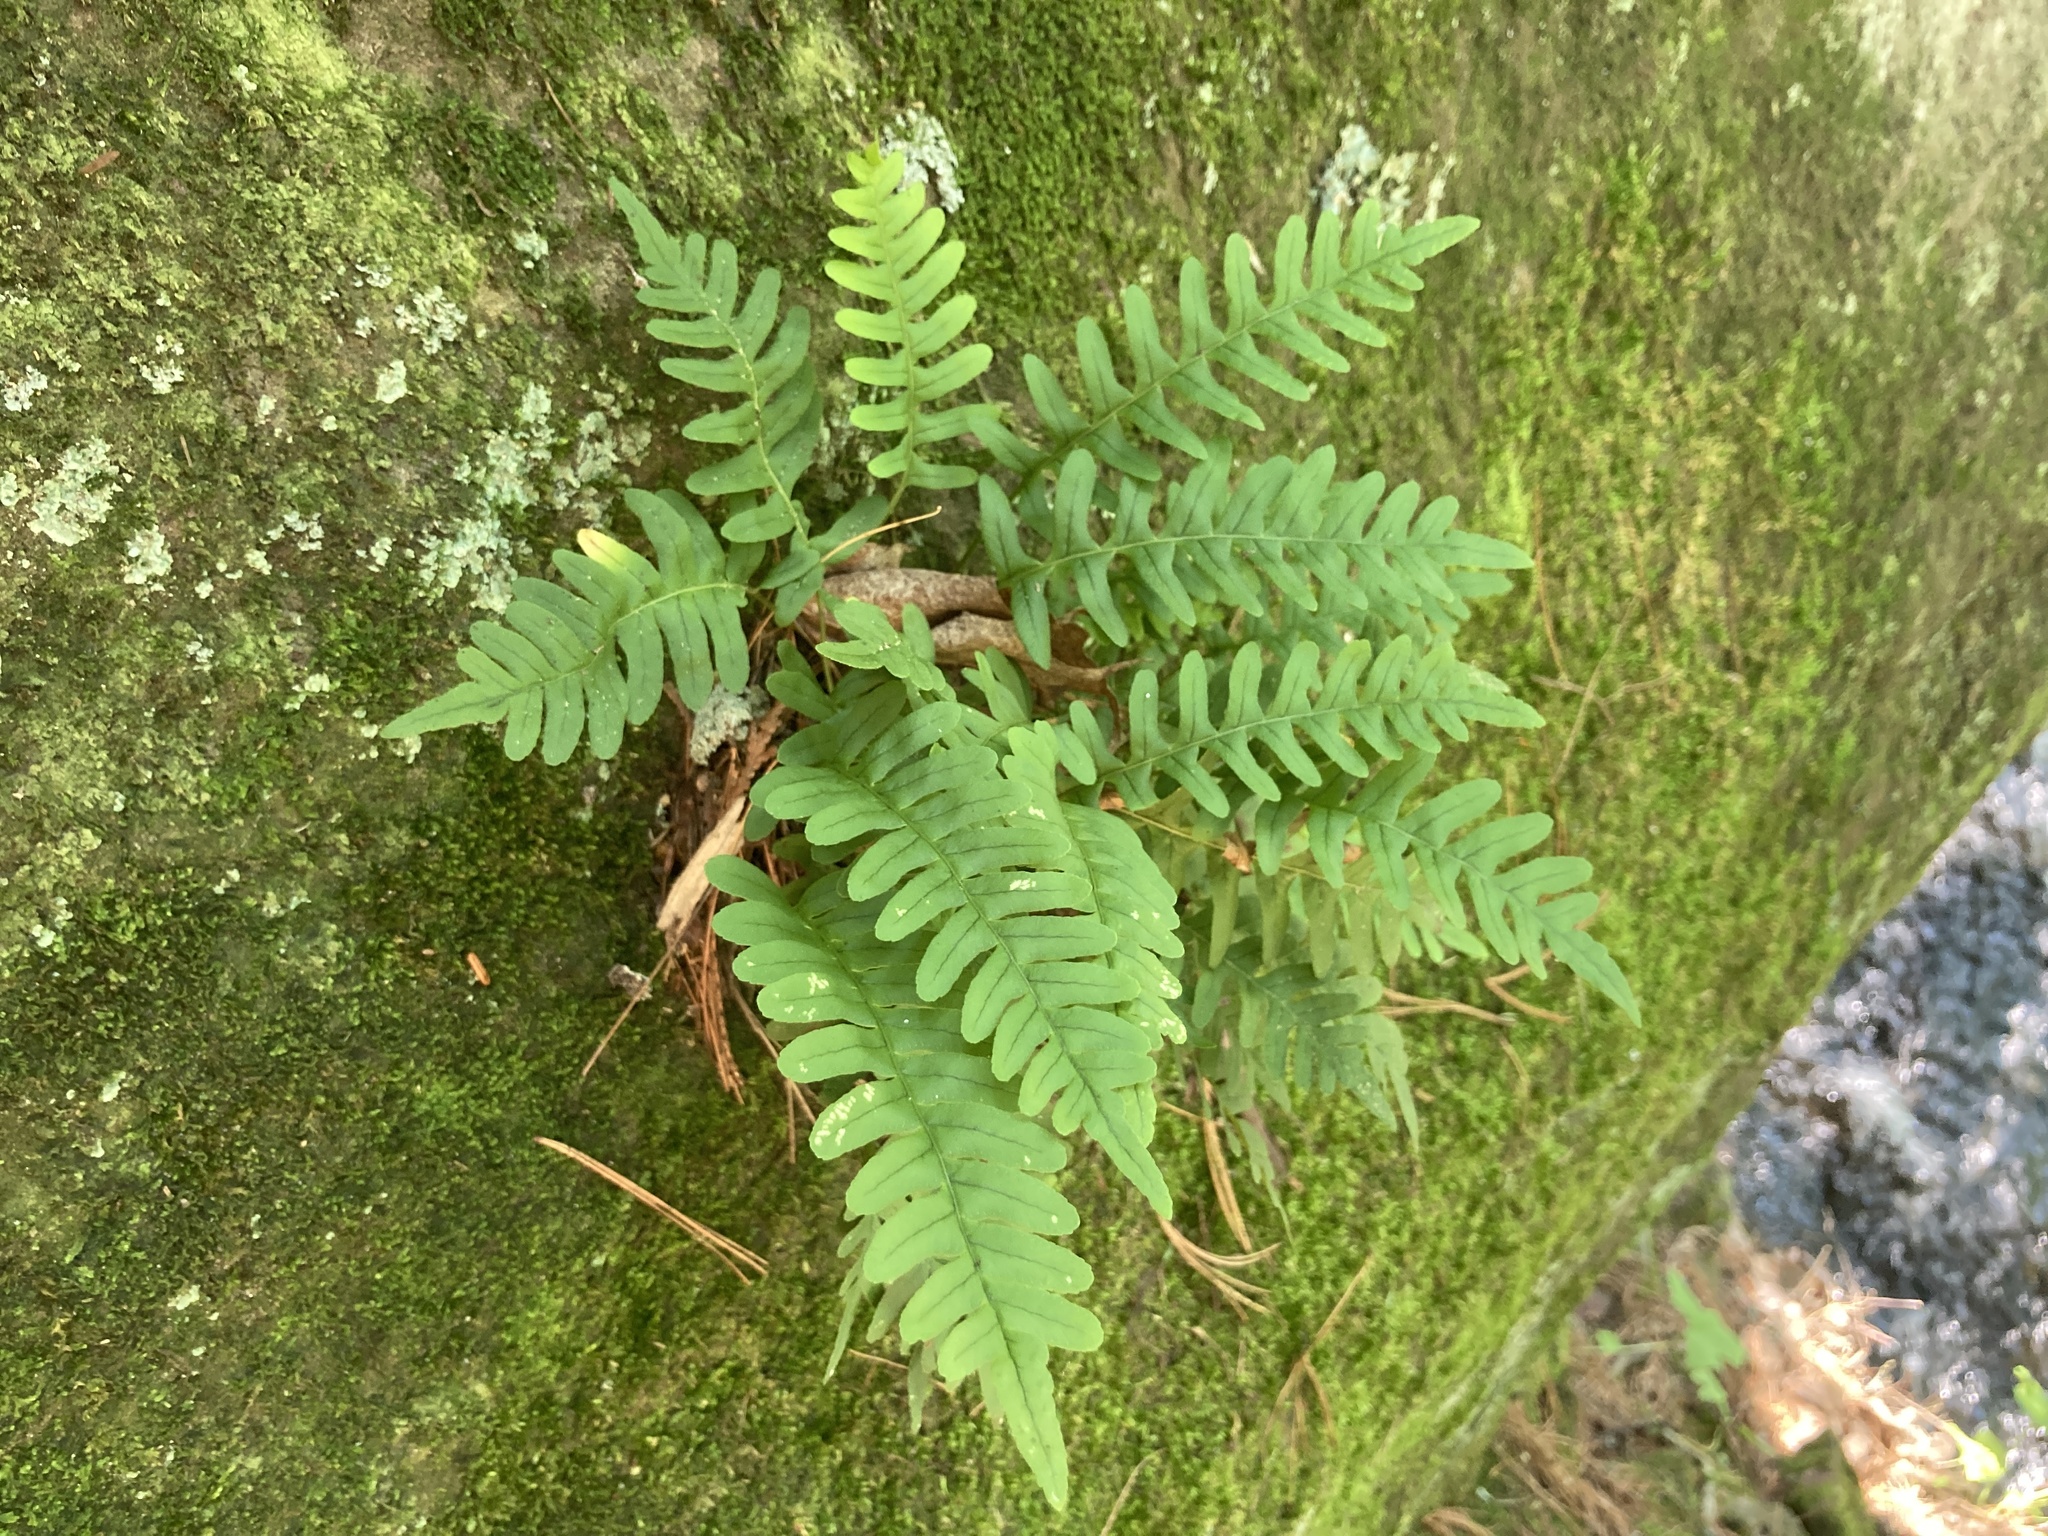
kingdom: Plantae
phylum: Tracheophyta
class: Polypodiopsida
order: Polypodiales
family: Polypodiaceae
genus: Polypodium
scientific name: Polypodium virginianum
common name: American wall fern
